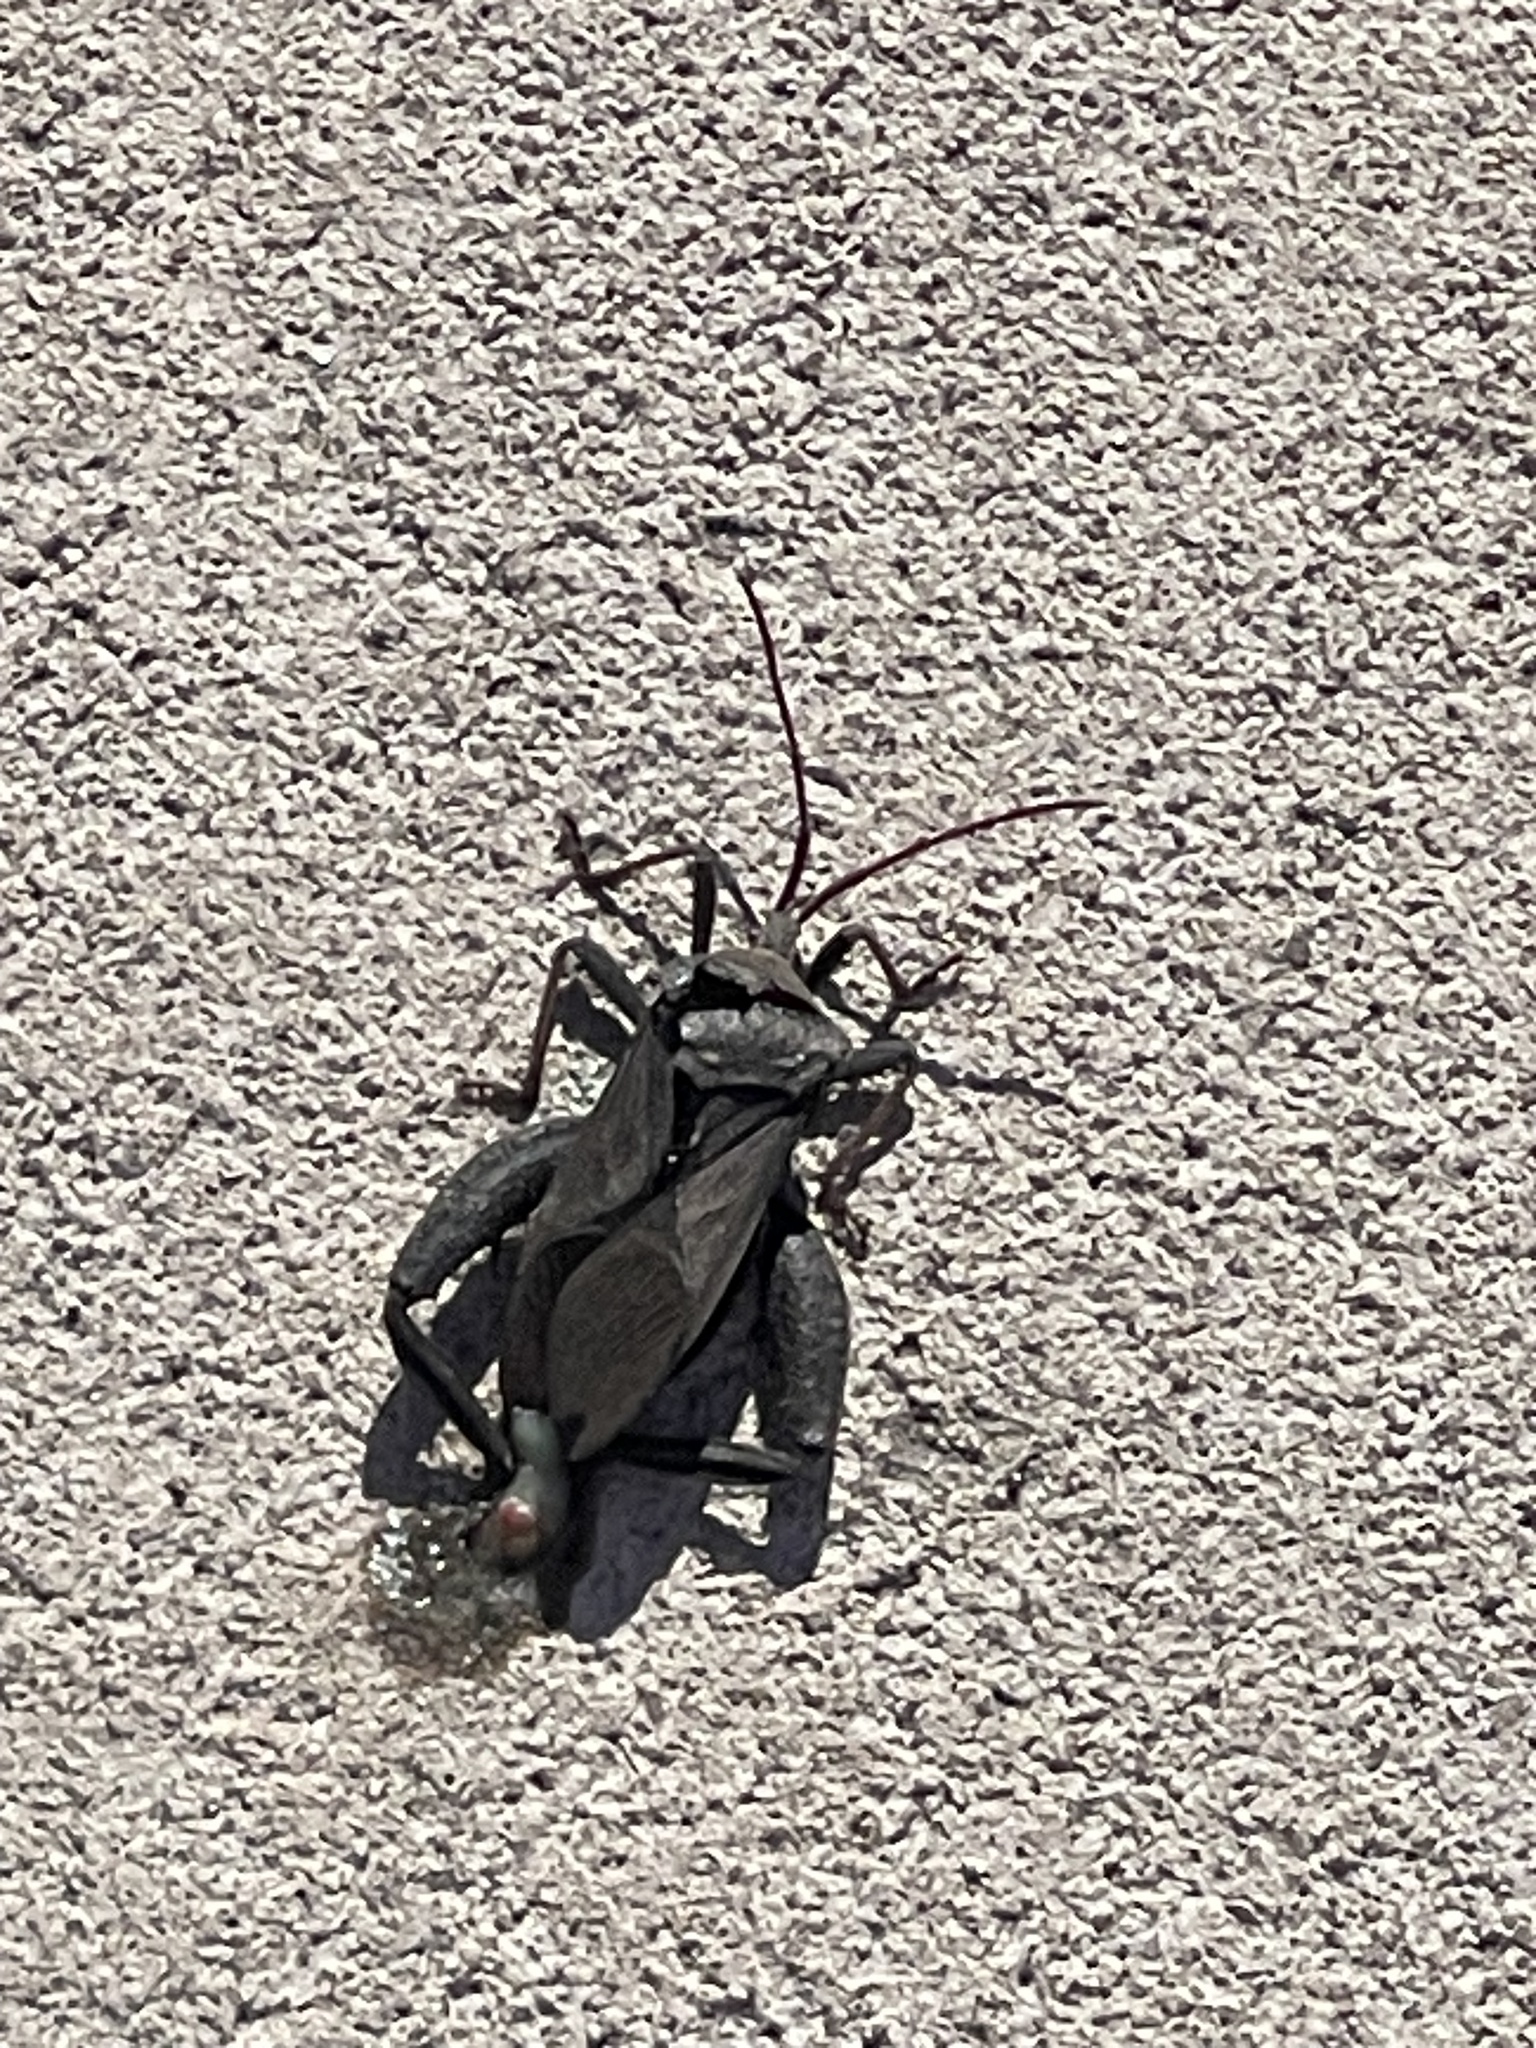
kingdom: Animalia
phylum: Arthropoda
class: Insecta
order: Hemiptera
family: Coreidae
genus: Acanthocephala
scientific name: Acanthocephala femorata
